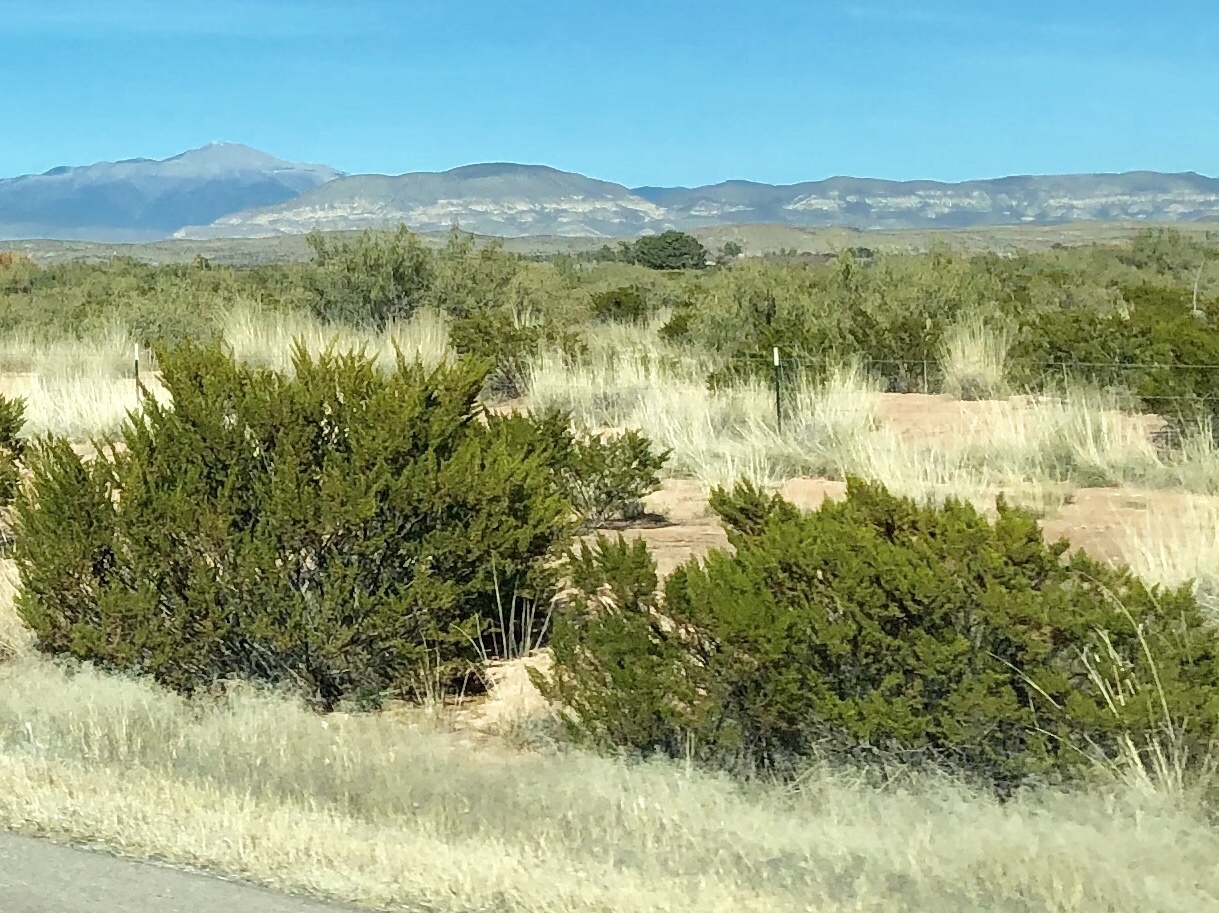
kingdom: Plantae
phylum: Tracheophyta
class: Magnoliopsida
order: Zygophyllales
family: Zygophyllaceae
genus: Larrea
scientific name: Larrea tridentata
